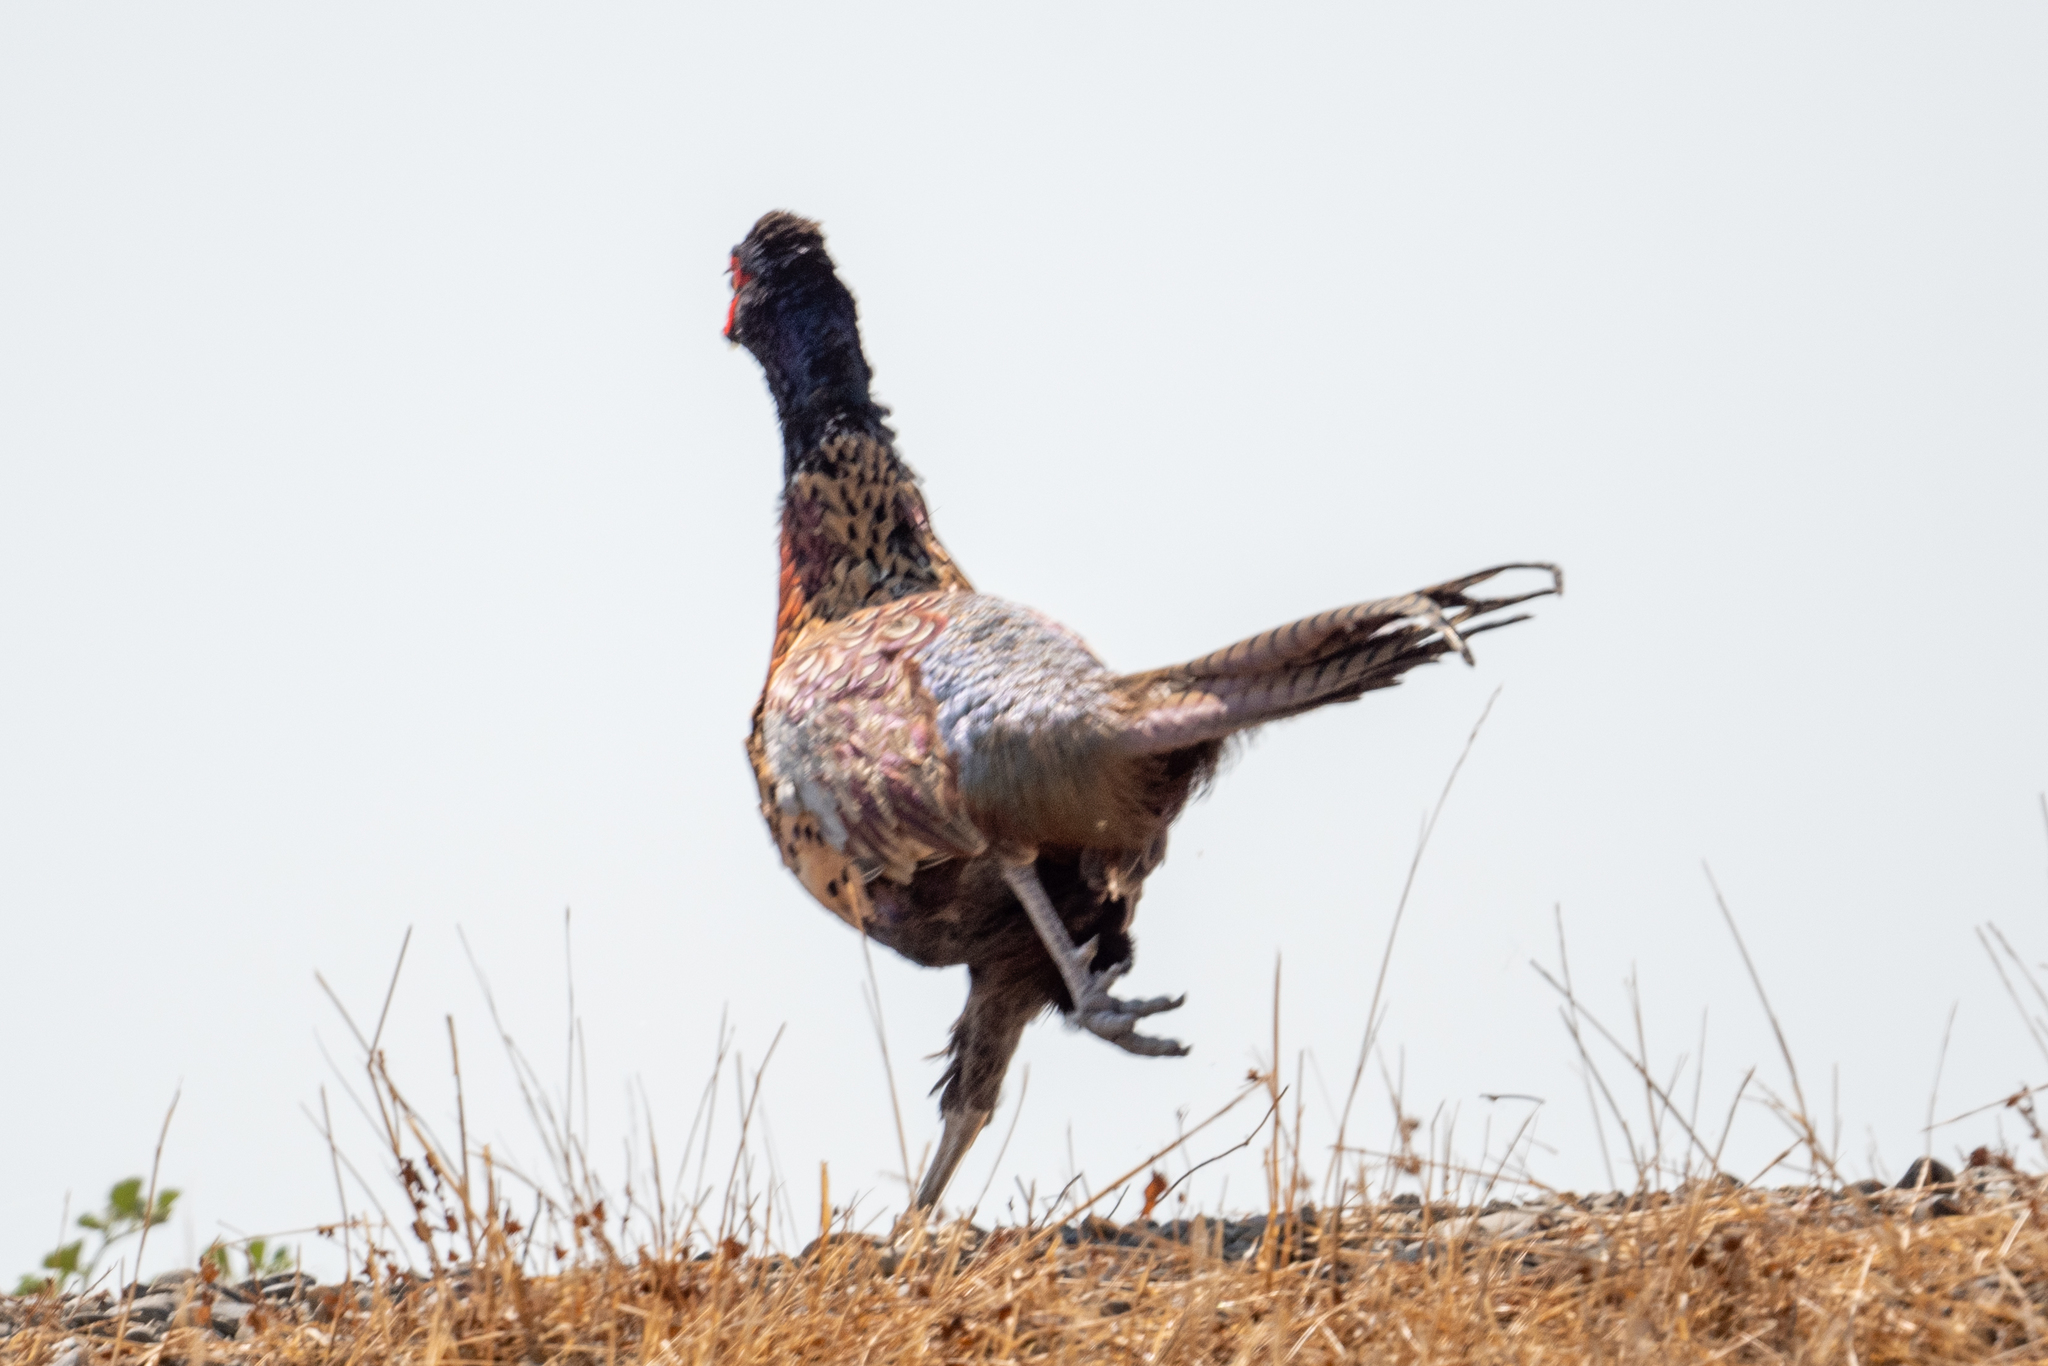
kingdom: Animalia
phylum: Chordata
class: Aves
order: Galliformes
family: Phasianidae
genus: Phasianus
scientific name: Phasianus colchicus
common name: Common pheasant
